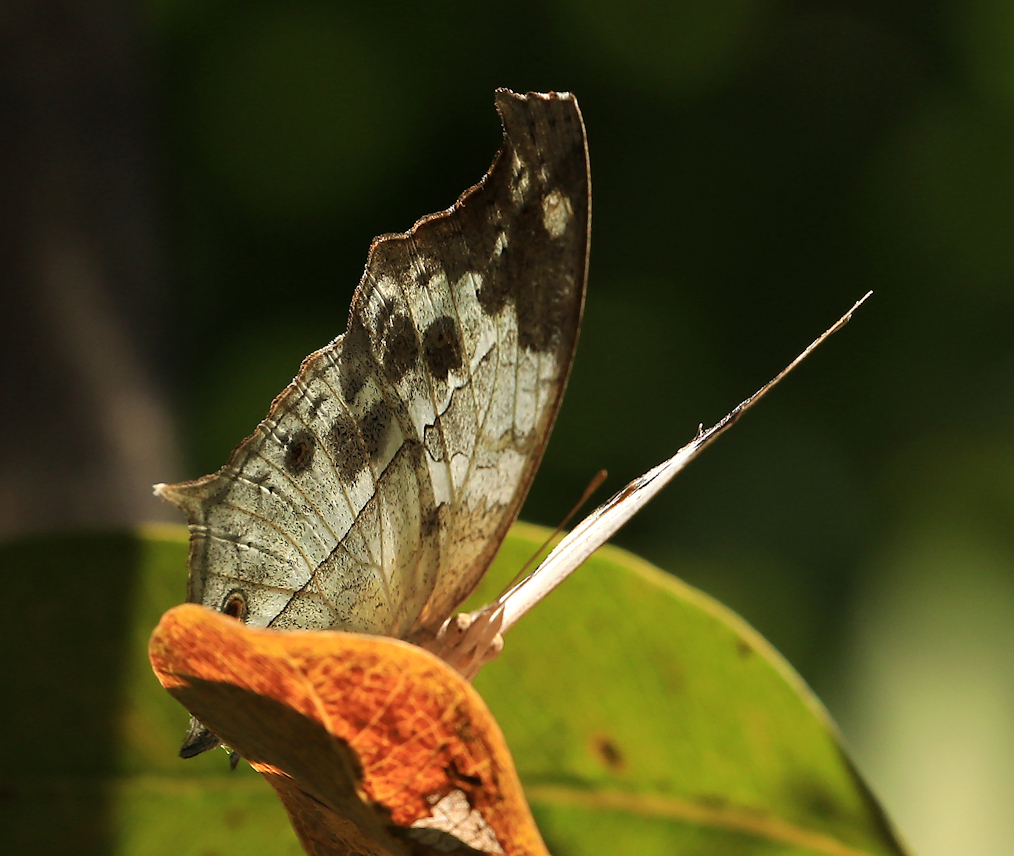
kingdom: Animalia
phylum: Arthropoda
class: Insecta
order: Lepidoptera
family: Nymphalidae
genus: Salamis
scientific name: Salamis
